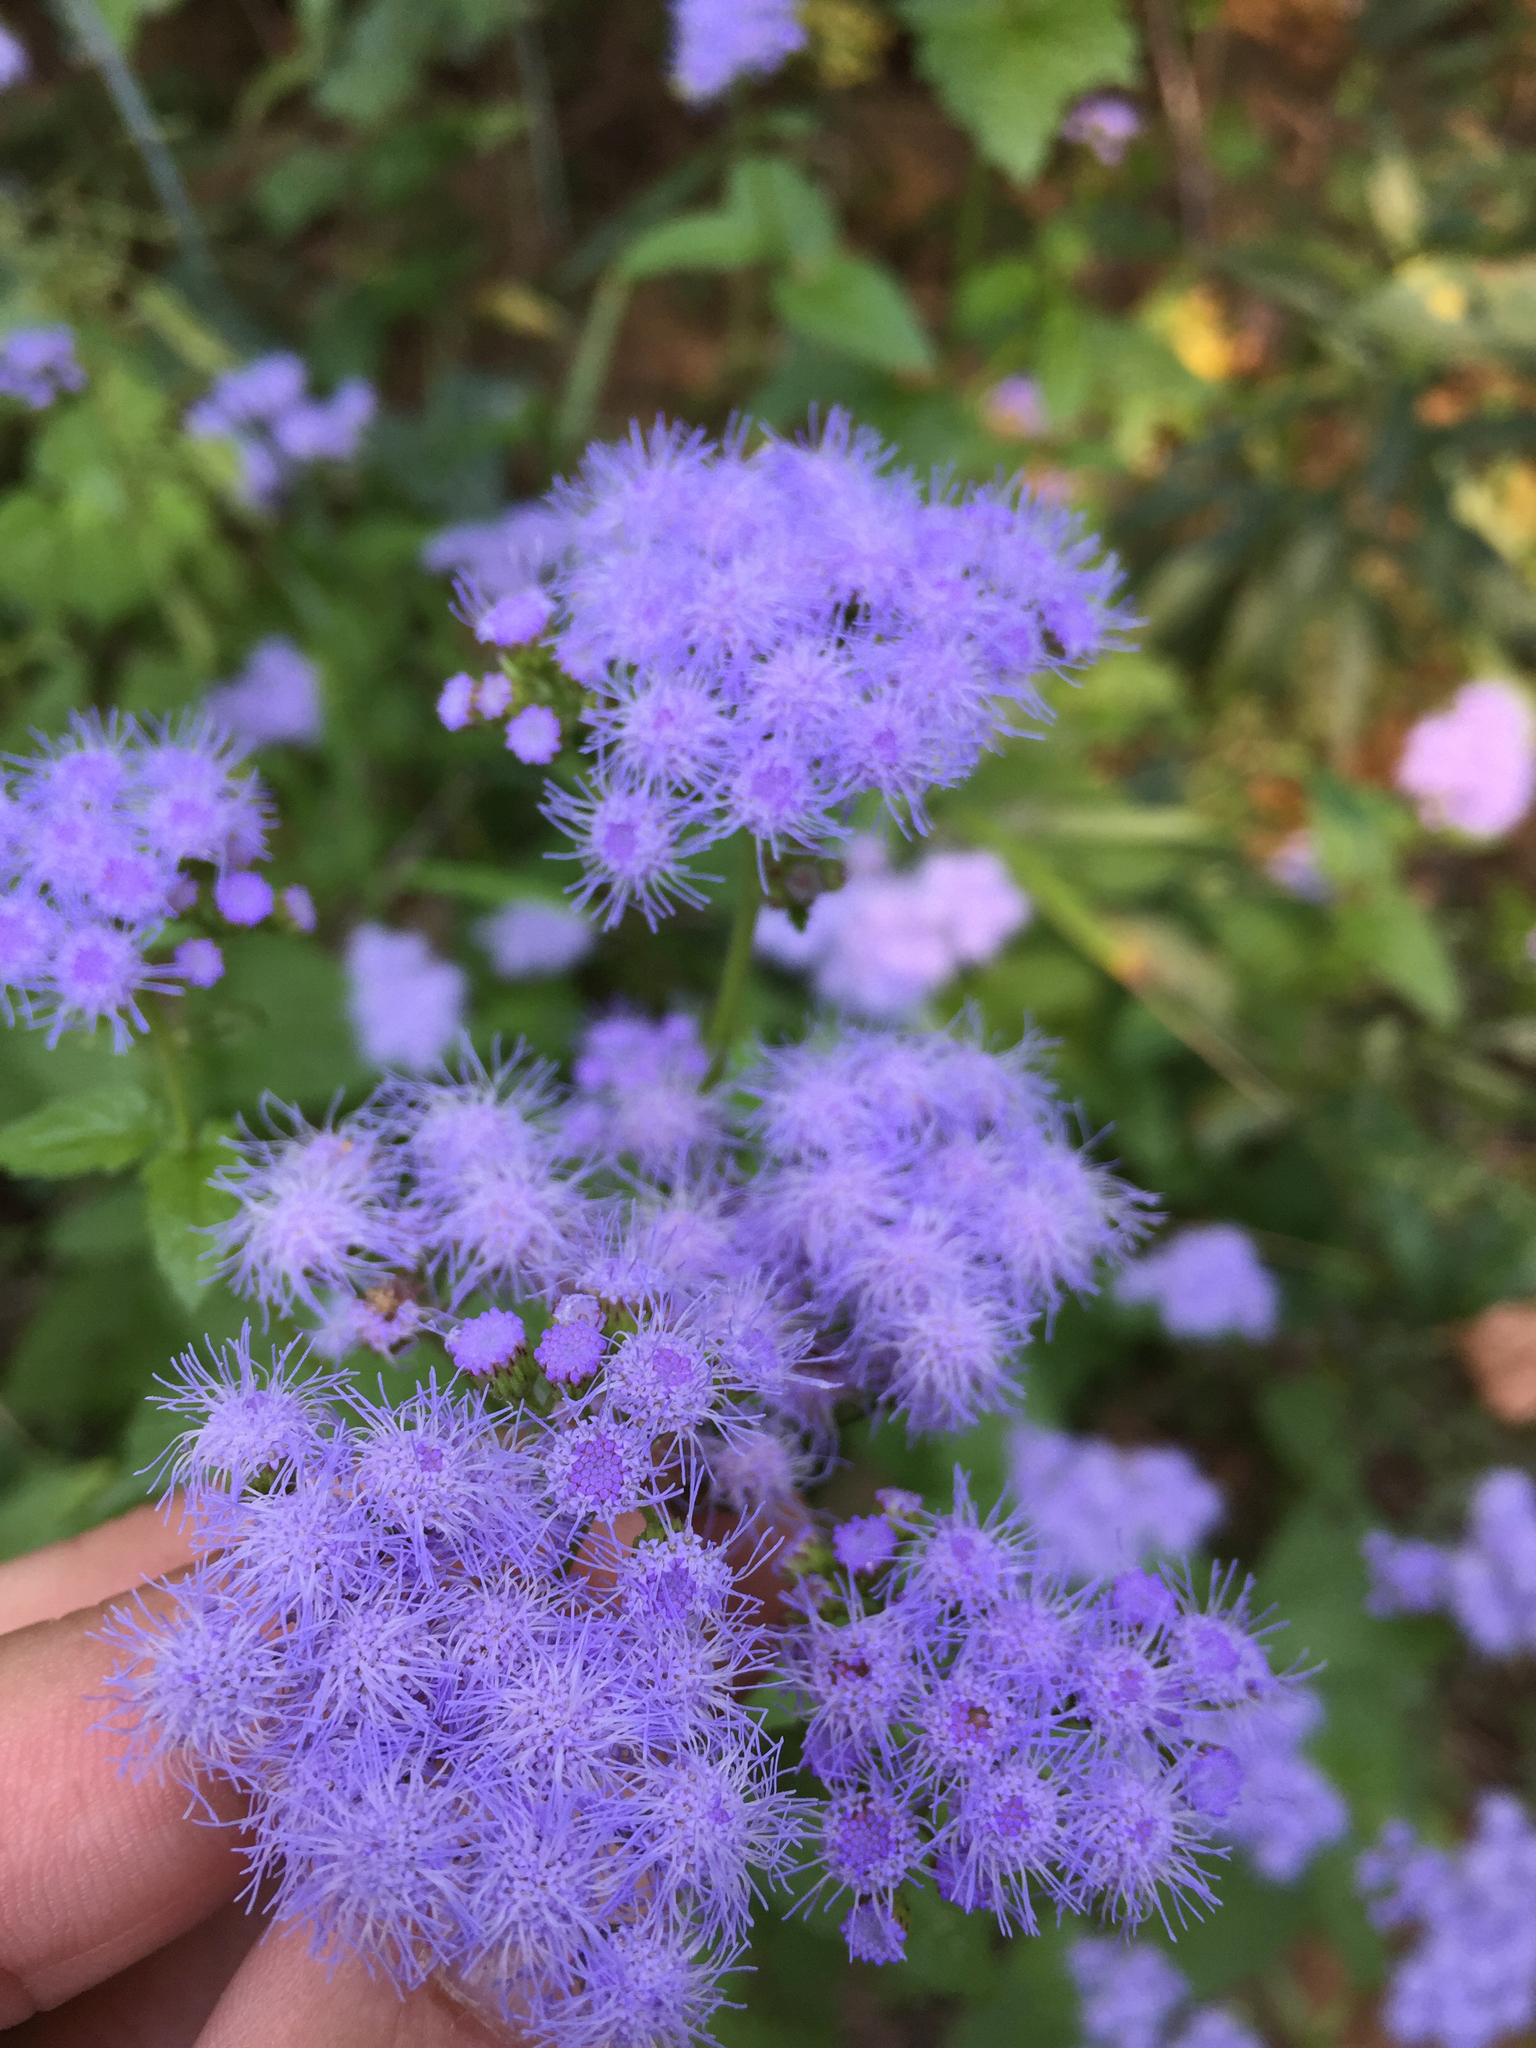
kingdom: Plantae
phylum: Tracheophyta
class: Magnoliopsida
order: Asterales
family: Asteraceae
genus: Conoclinium
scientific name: Conoclinium coelestinum
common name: Blue mistflower
